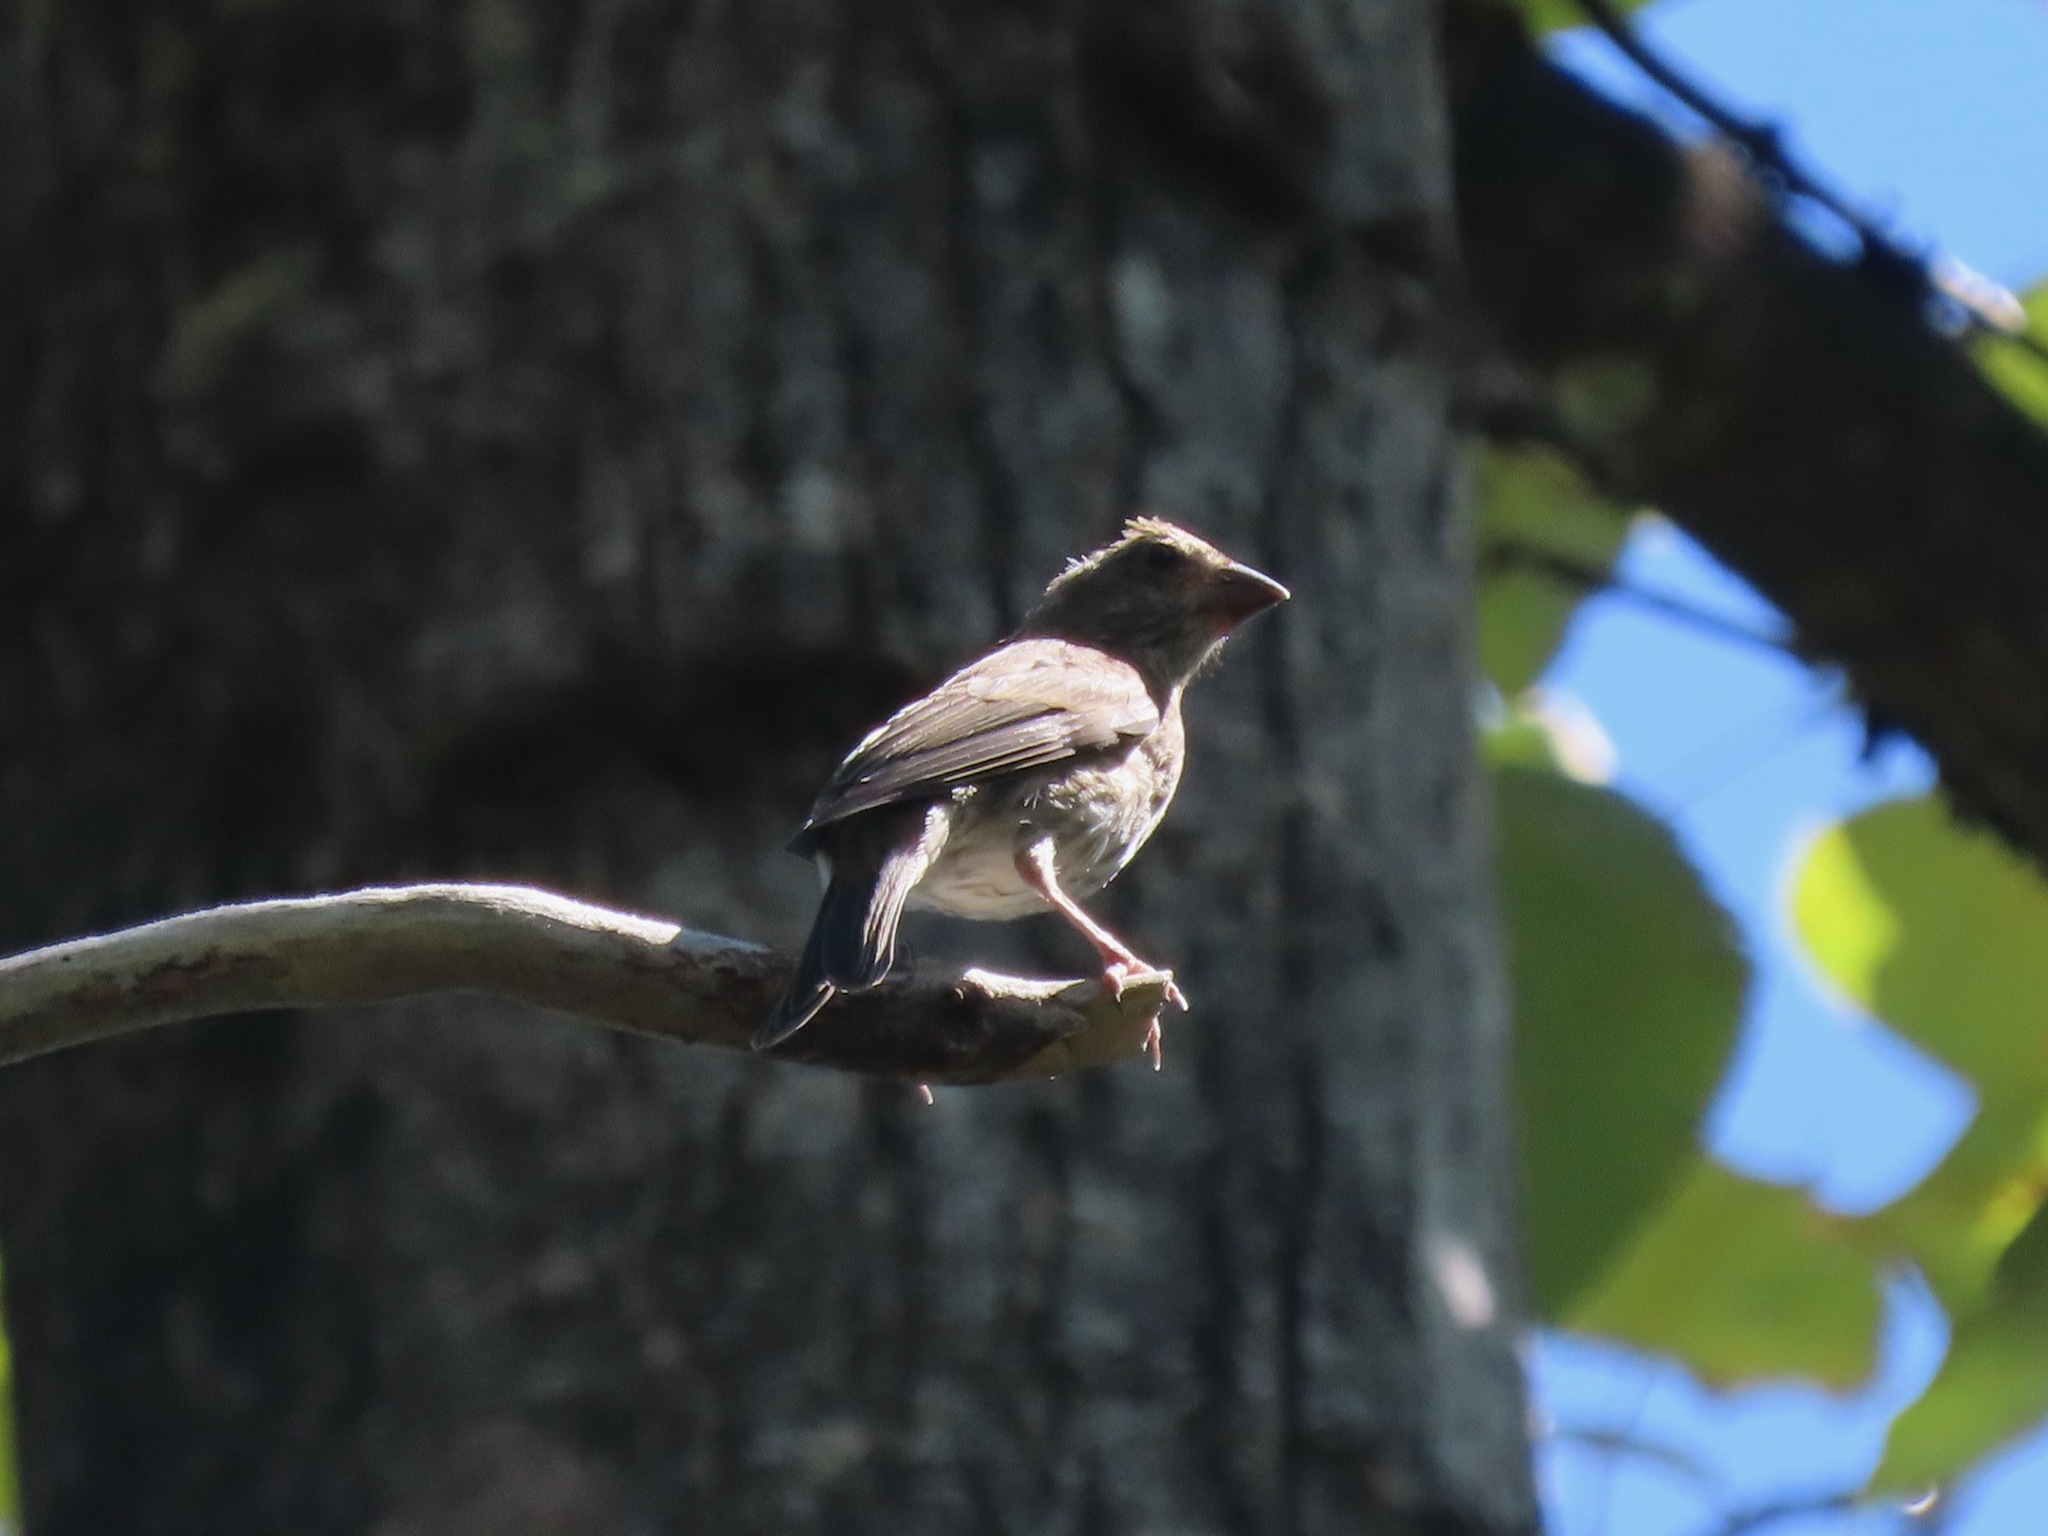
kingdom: Animalia
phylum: Chordata
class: Aves
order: Passeriformes
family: Fringillidae
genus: Haemorhous
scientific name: Haemorhous mexicanus
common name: House finch
